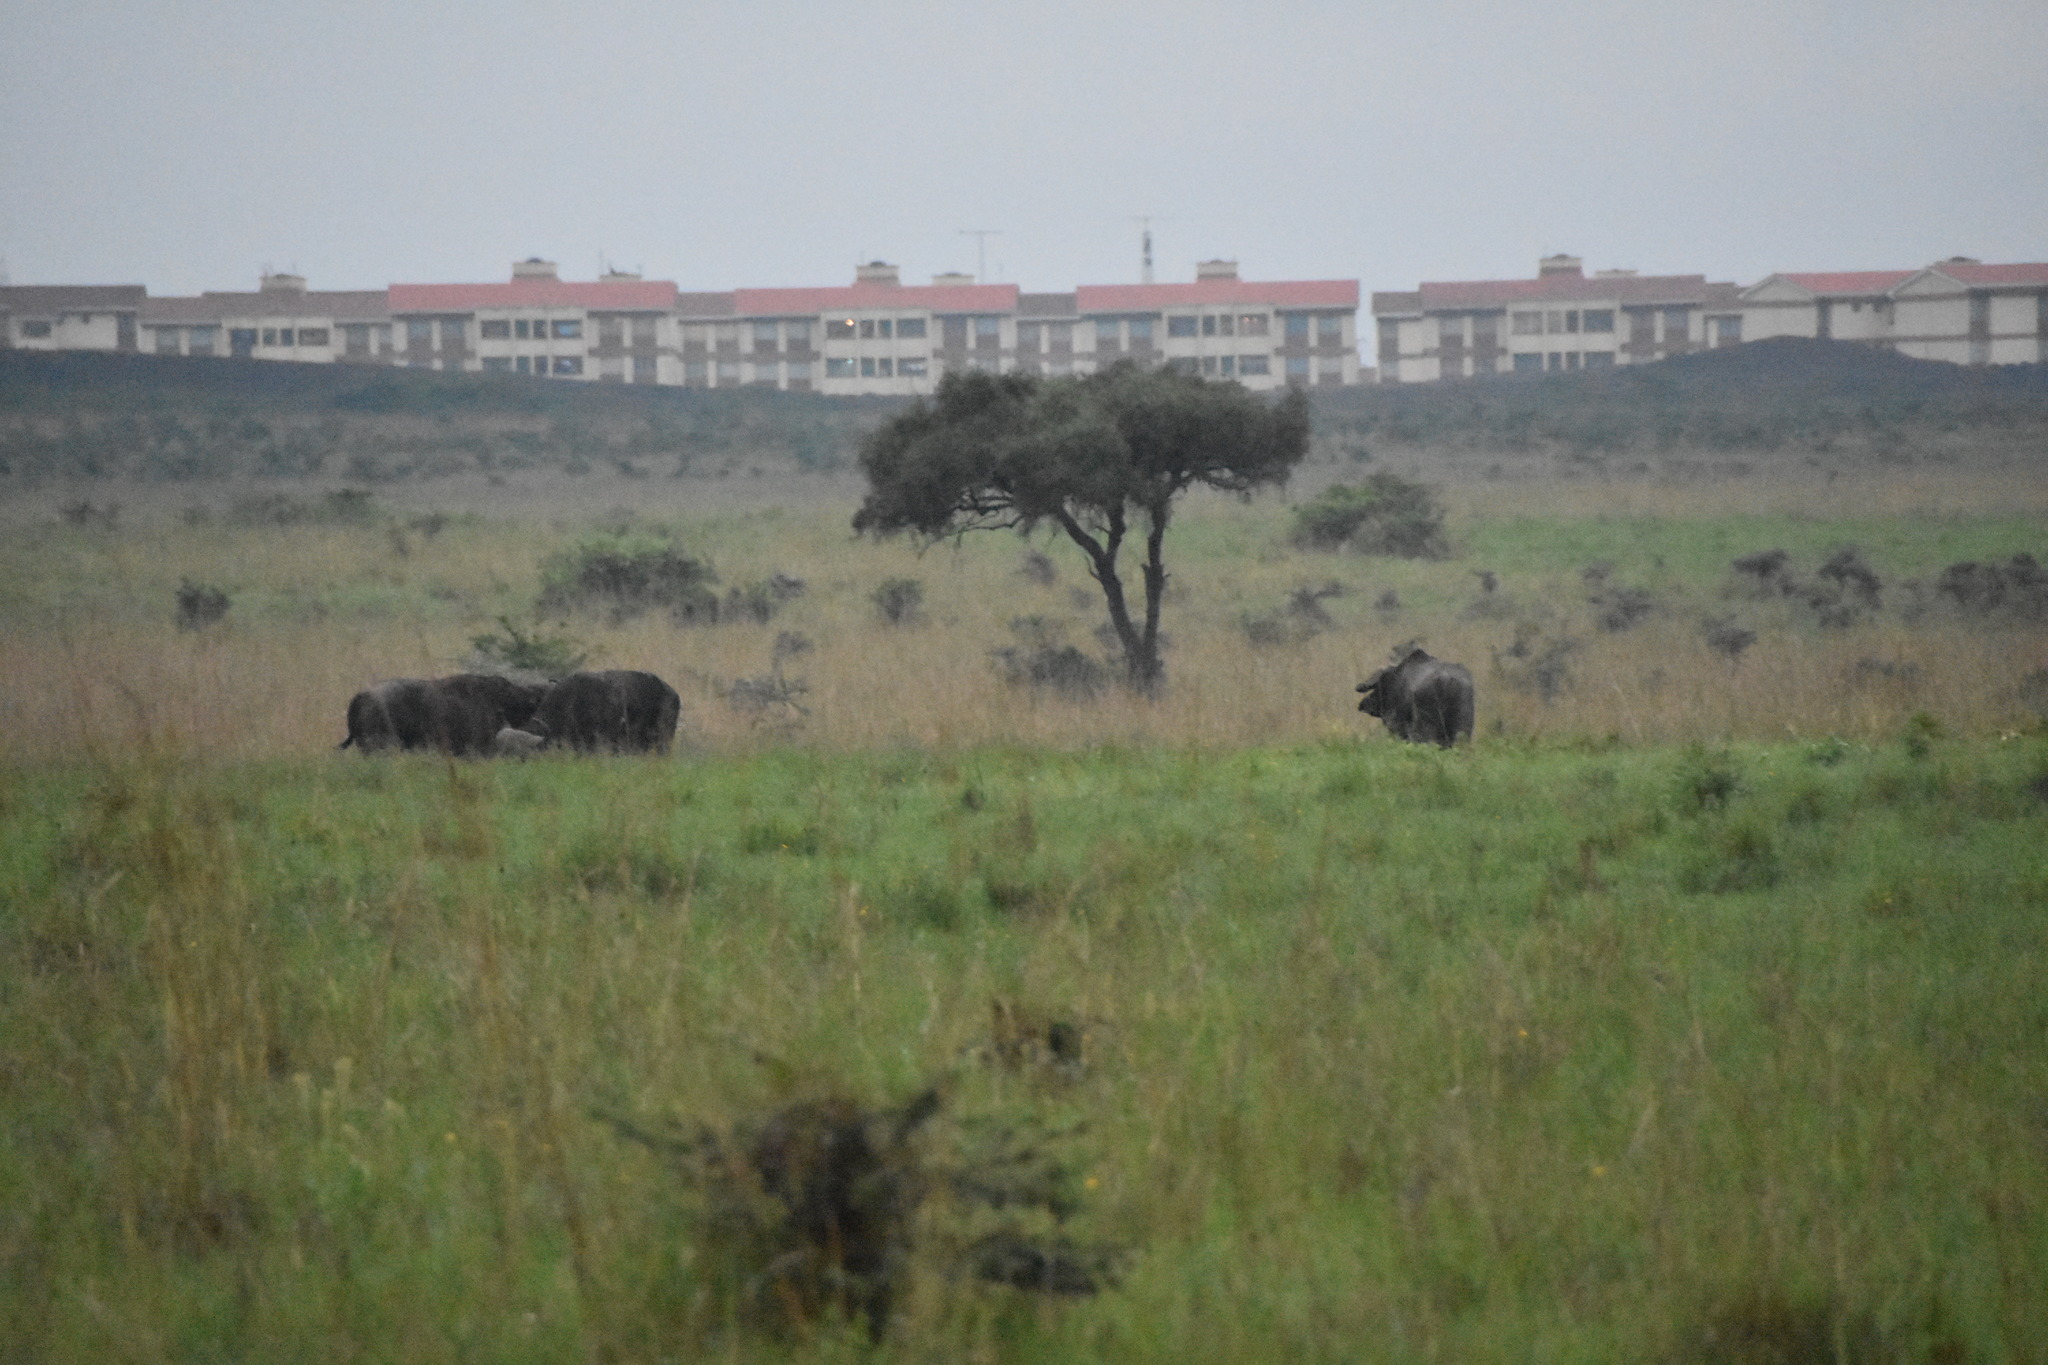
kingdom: Animalia
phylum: Chordata
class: Mammalia
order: Artiodactyla
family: Bovidae
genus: Syncerus
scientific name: Syncerus caffer
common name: African buffalo
